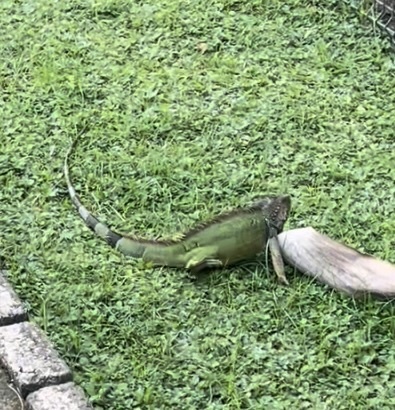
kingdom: Animalia
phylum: Chordata
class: Squamata
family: Iguanidae
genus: Iguana
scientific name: Iguana iguana
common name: Green iguana
